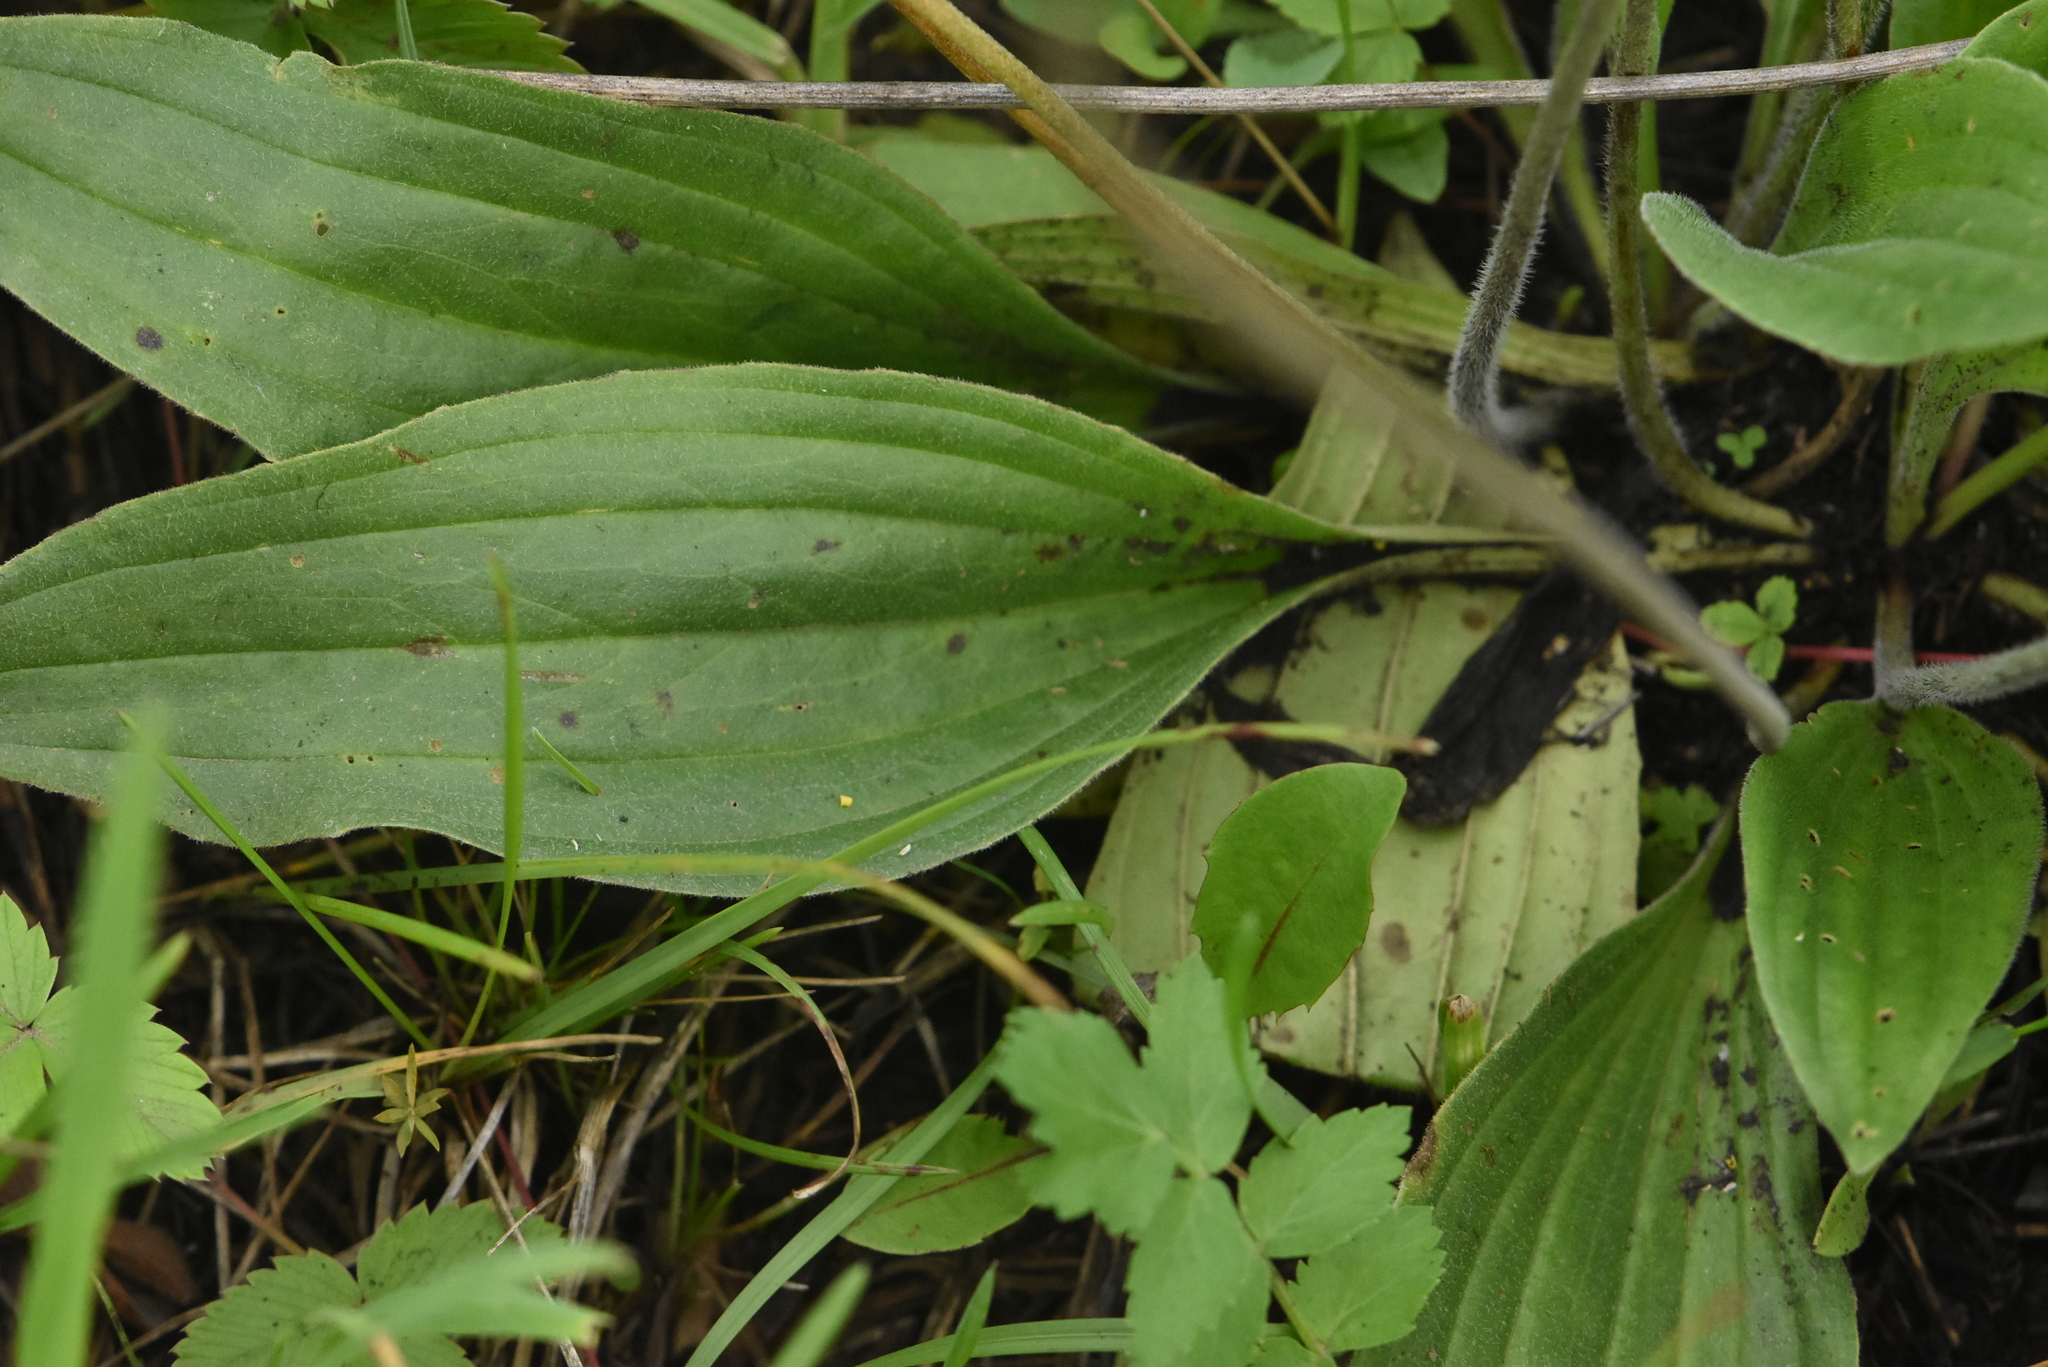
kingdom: Plantae
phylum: Tracheophyta
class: Magnoliopsida
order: Lamiales
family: Plantaginaceae
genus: Plantago
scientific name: Plantago media
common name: Hoary plantain
